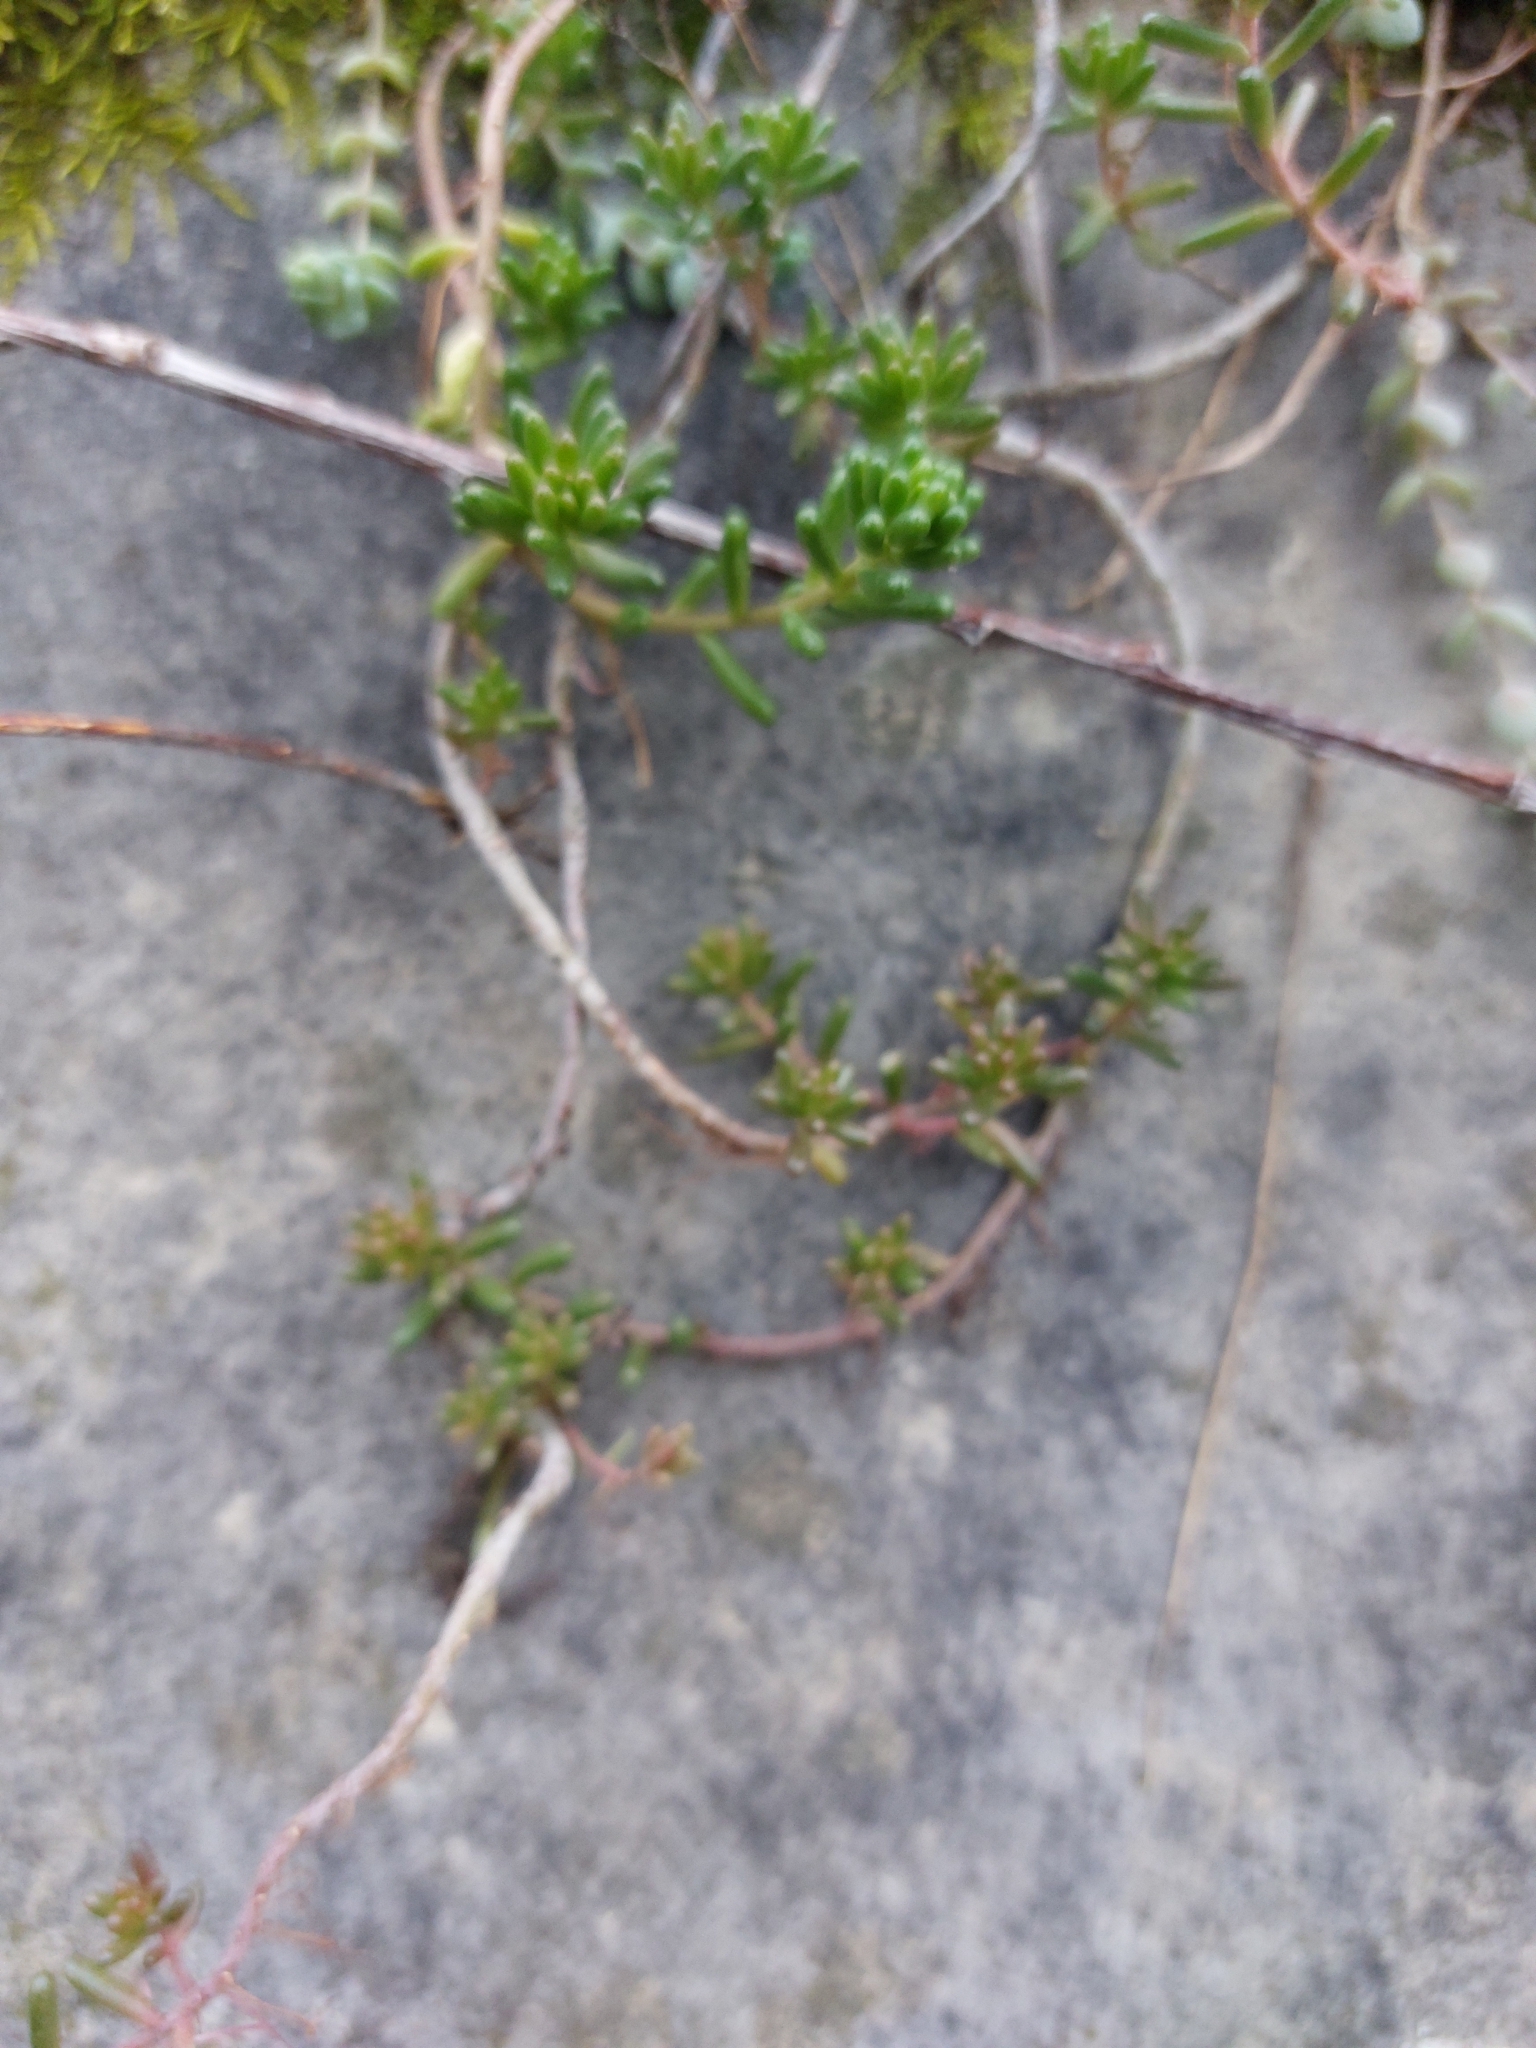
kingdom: Plantae
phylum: Tracheophyta
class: Magnoliopsida
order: Saxifragales
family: Crassulaceae
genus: Sedum
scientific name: Sedum album
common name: White stonecrop
